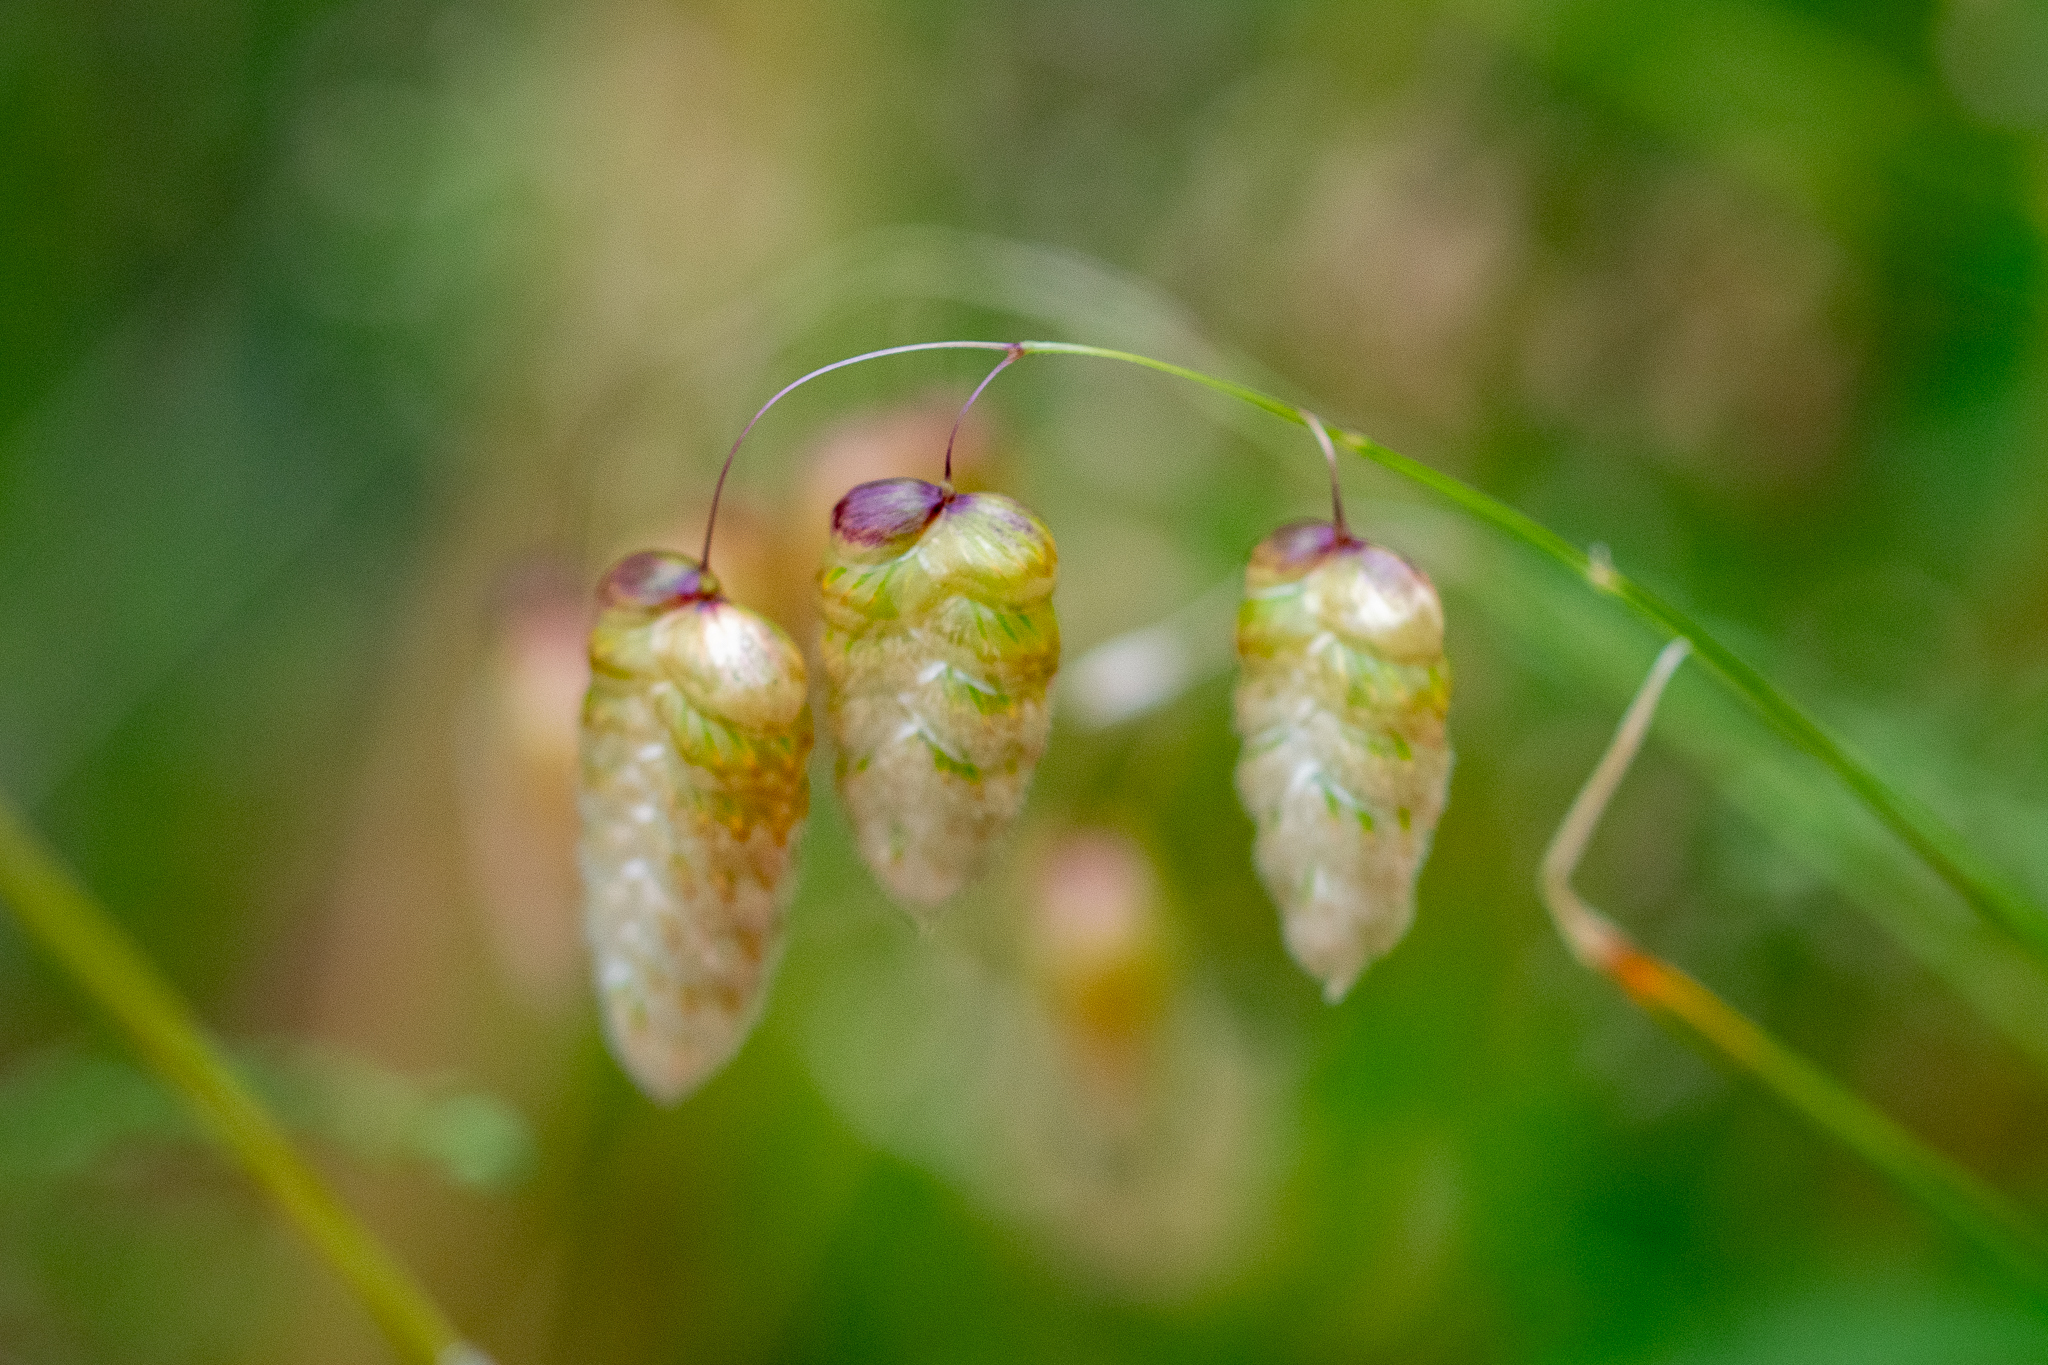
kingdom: Plantae
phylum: Tracheophyta
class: Liliopsida
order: Poales
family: Poaceae
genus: Briza
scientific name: Briza maxima
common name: Big quakinggrass
